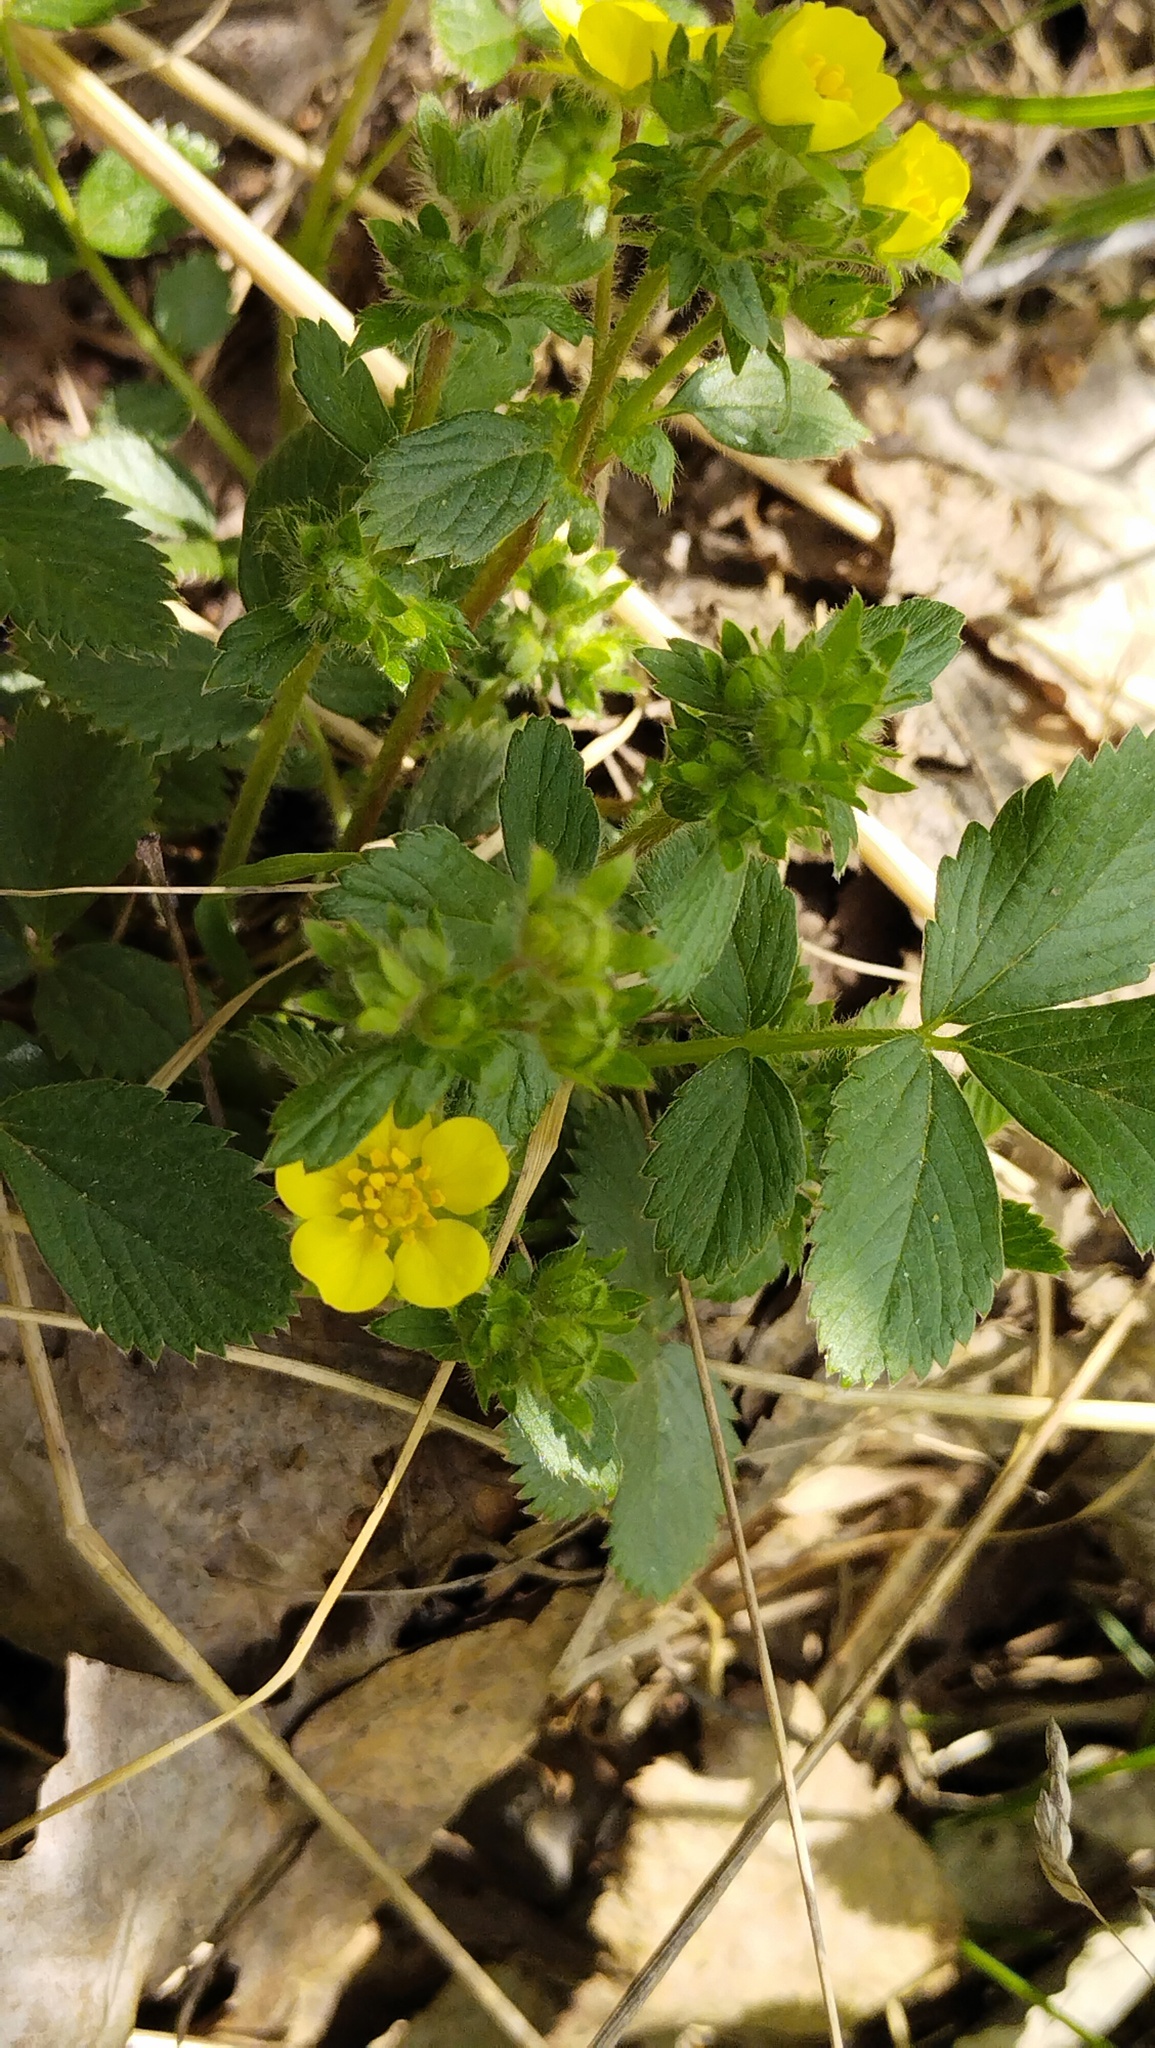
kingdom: Plantae
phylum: Tracheophyta
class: Magnoliopsida
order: Rosales
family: Rosaceae
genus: Potentilla
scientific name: Potentilla fragarioides
